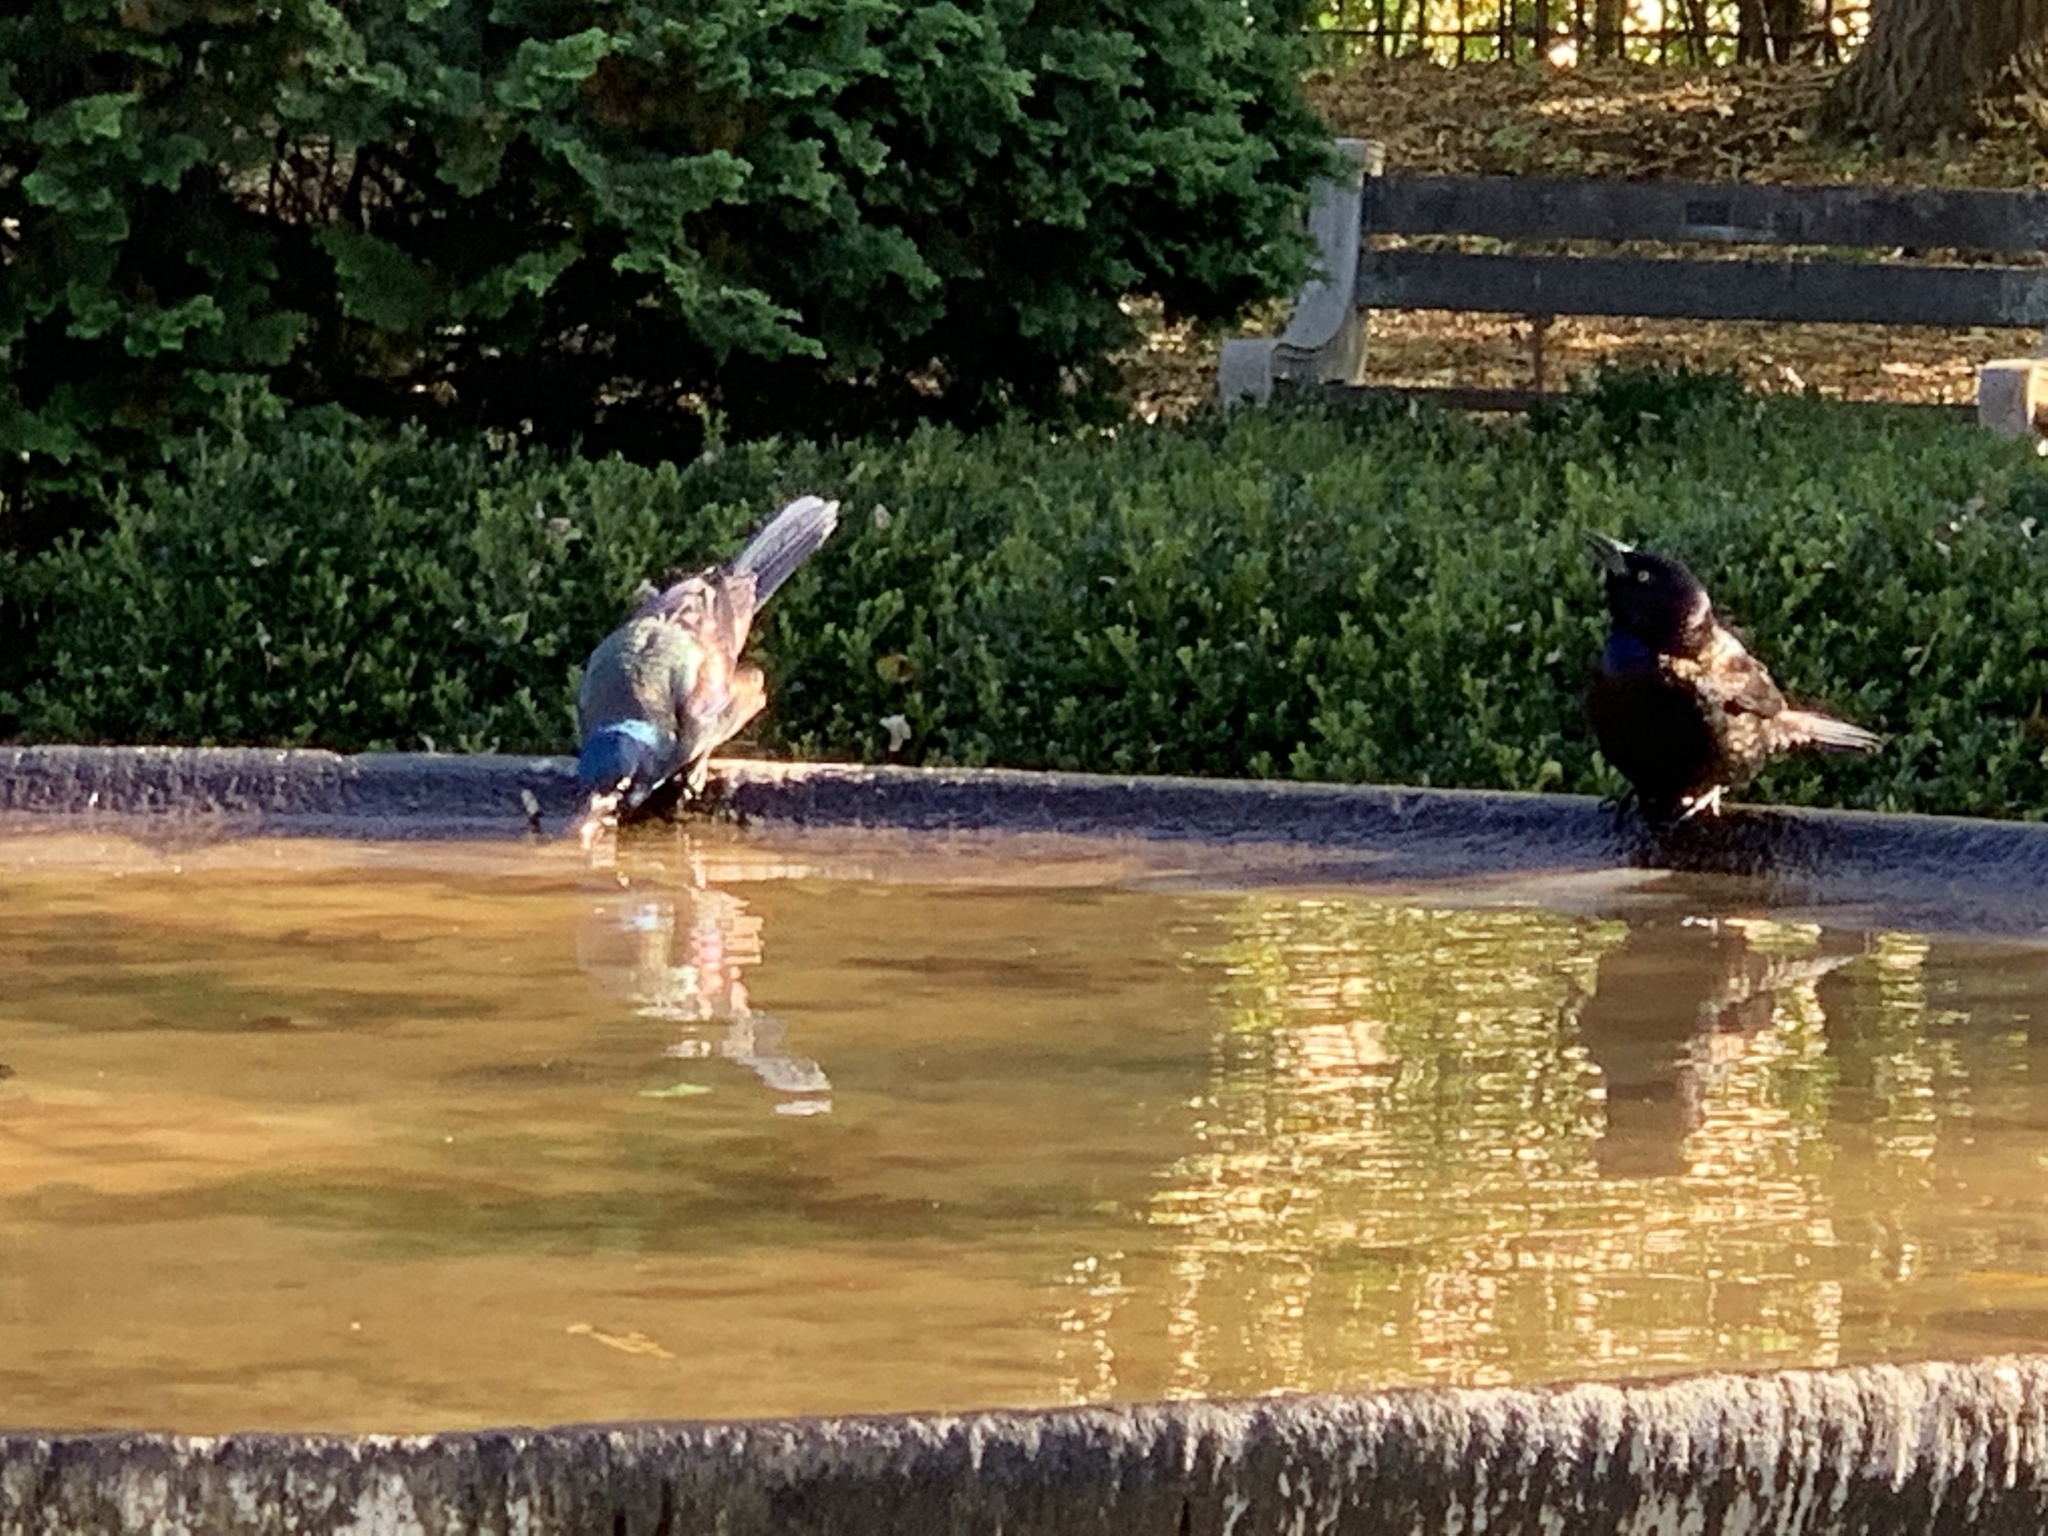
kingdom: Animalia
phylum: Chordata
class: Aves
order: Passeriformes
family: Icteridae
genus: Quiscalus
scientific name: Quiscalus quiscula
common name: Common grackle
